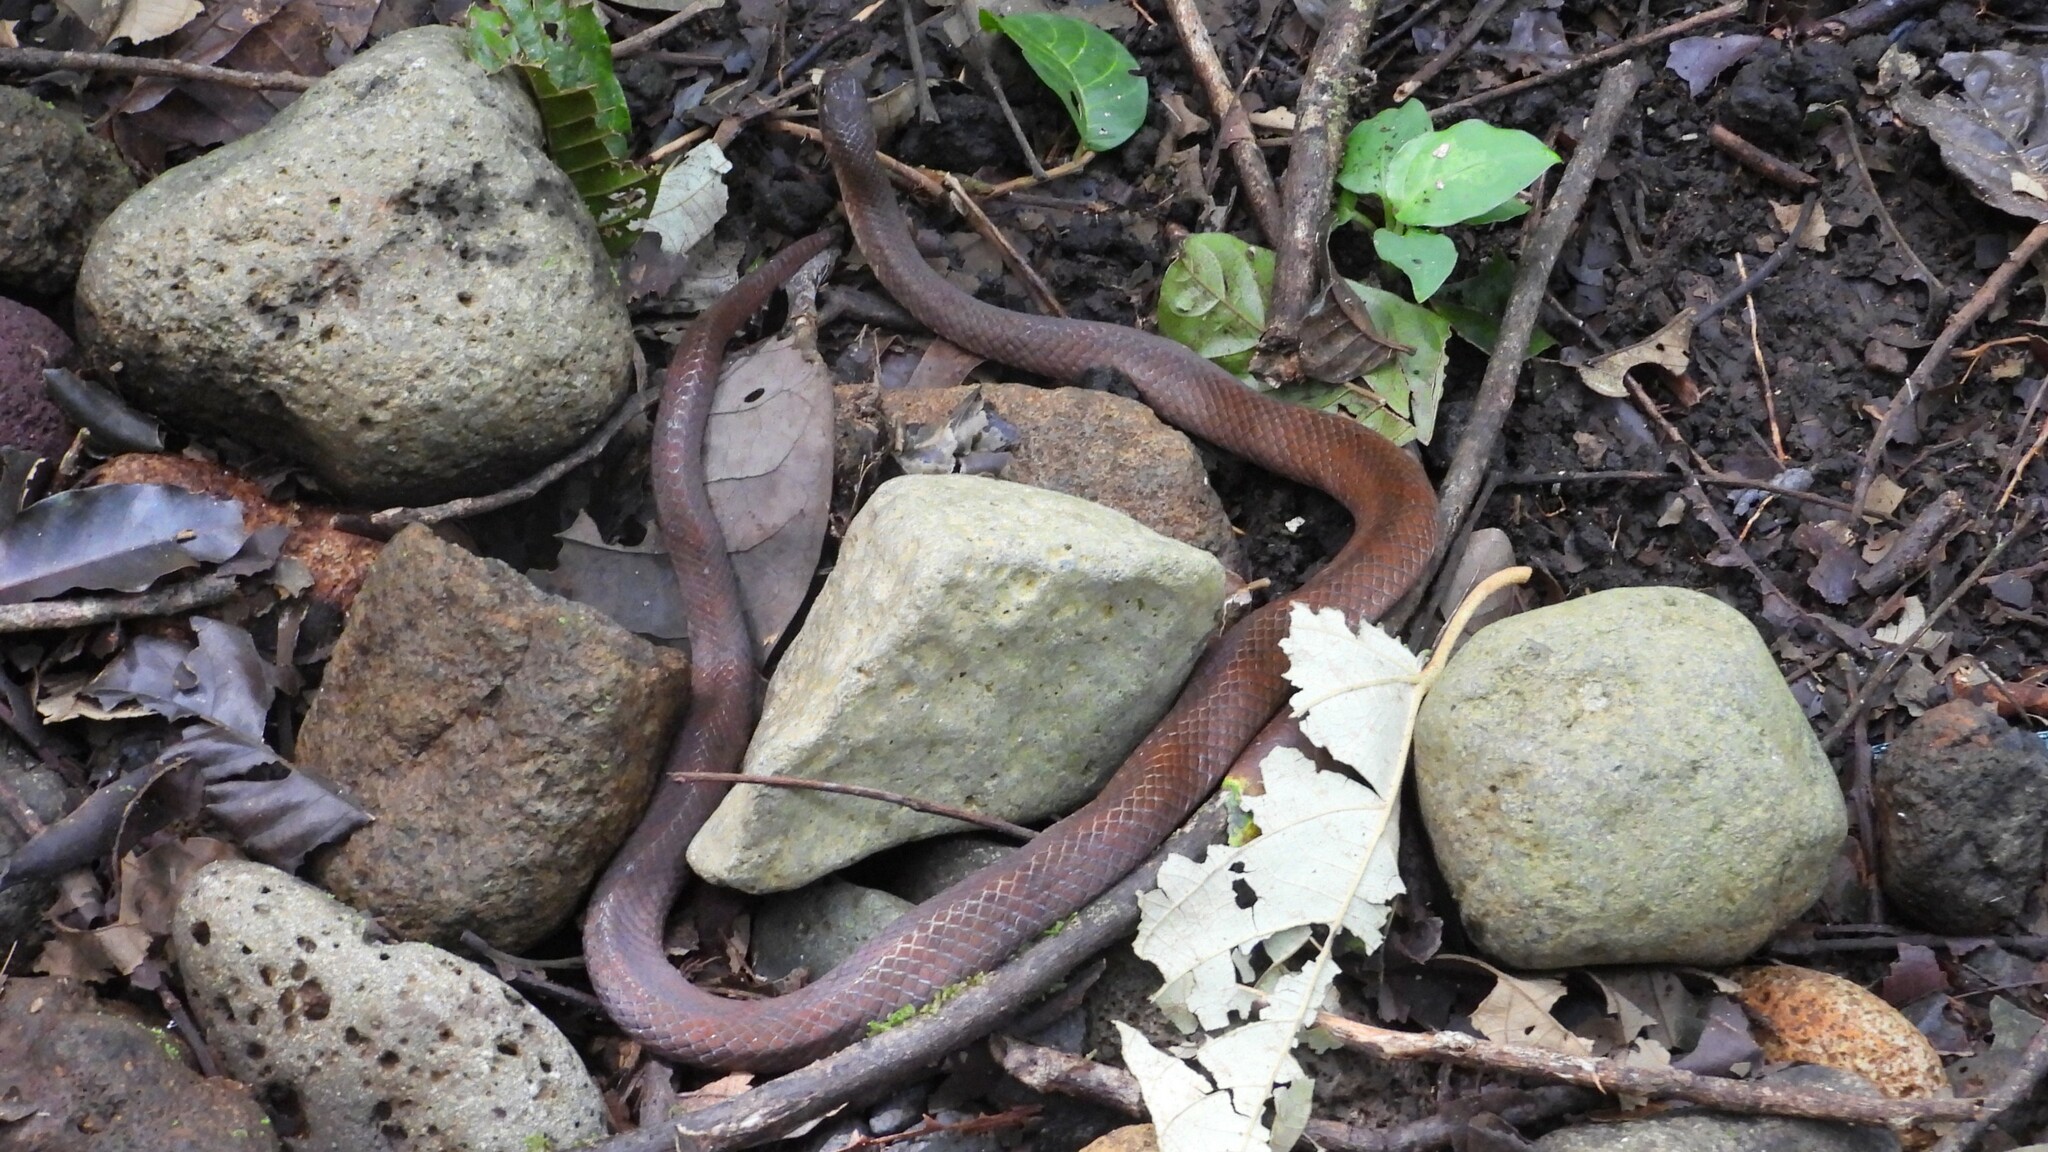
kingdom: Animalia
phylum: Chordata
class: Squamata
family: Colubridae
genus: Stenorrhina
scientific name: Stenorrhina degenhardtii
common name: Degenhardt's scorpion-eating snake
